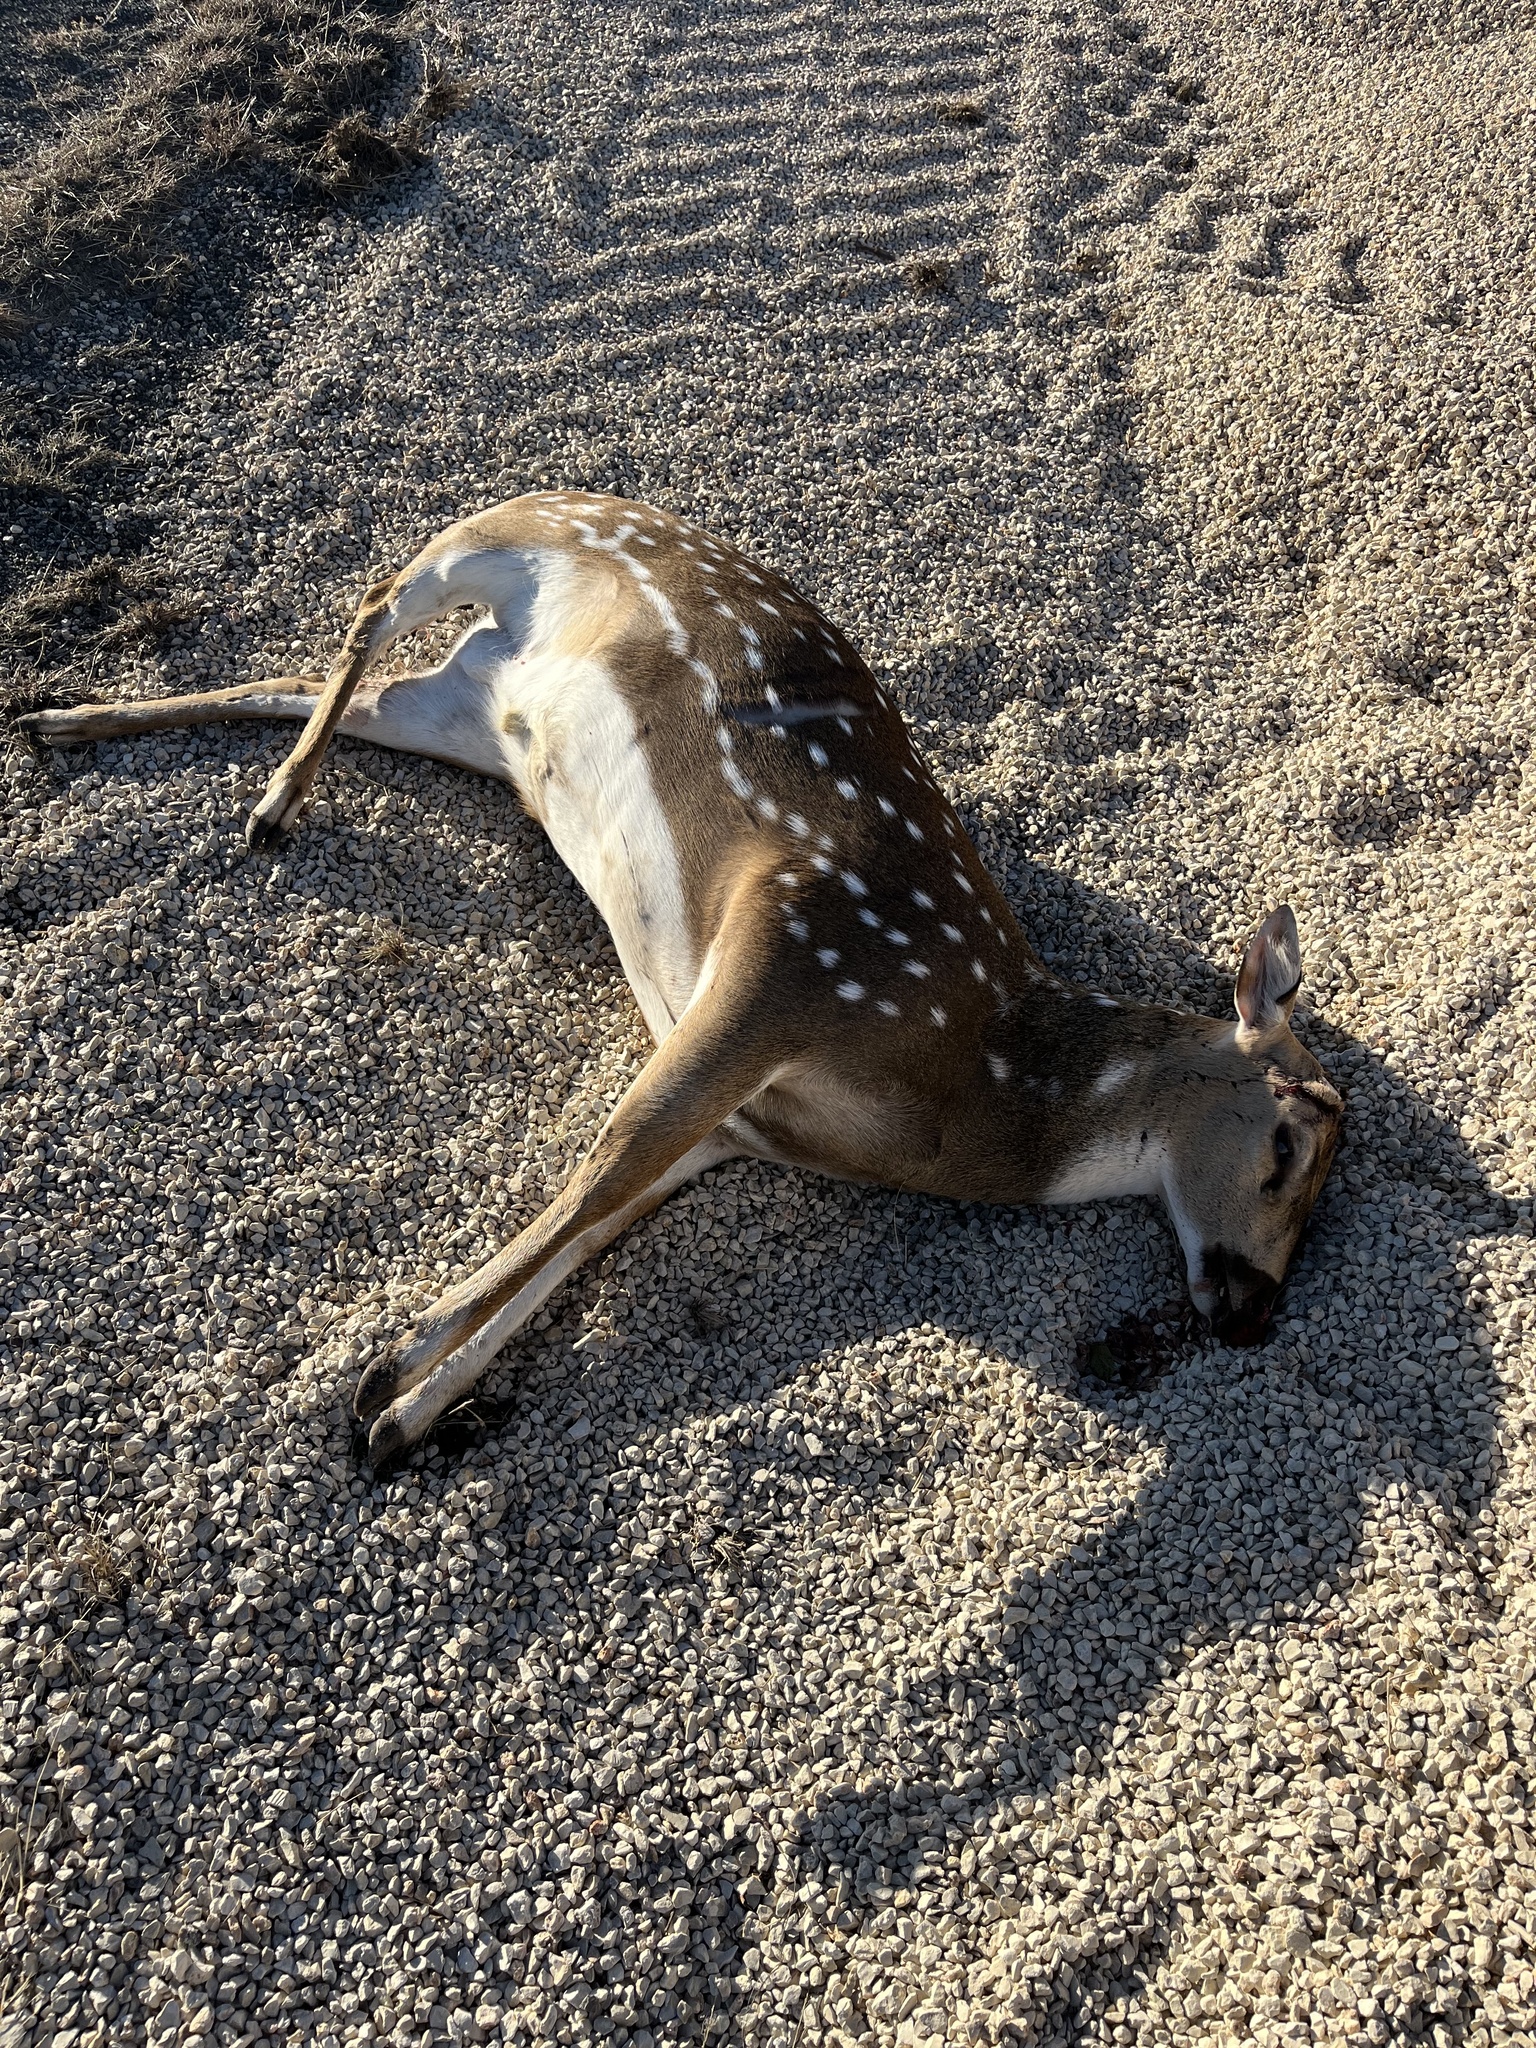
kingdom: Animalia
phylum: Chordata
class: Mammalia
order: Artiodactyla
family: Cervidae
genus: Axis
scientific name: Axis axis
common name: Chital
